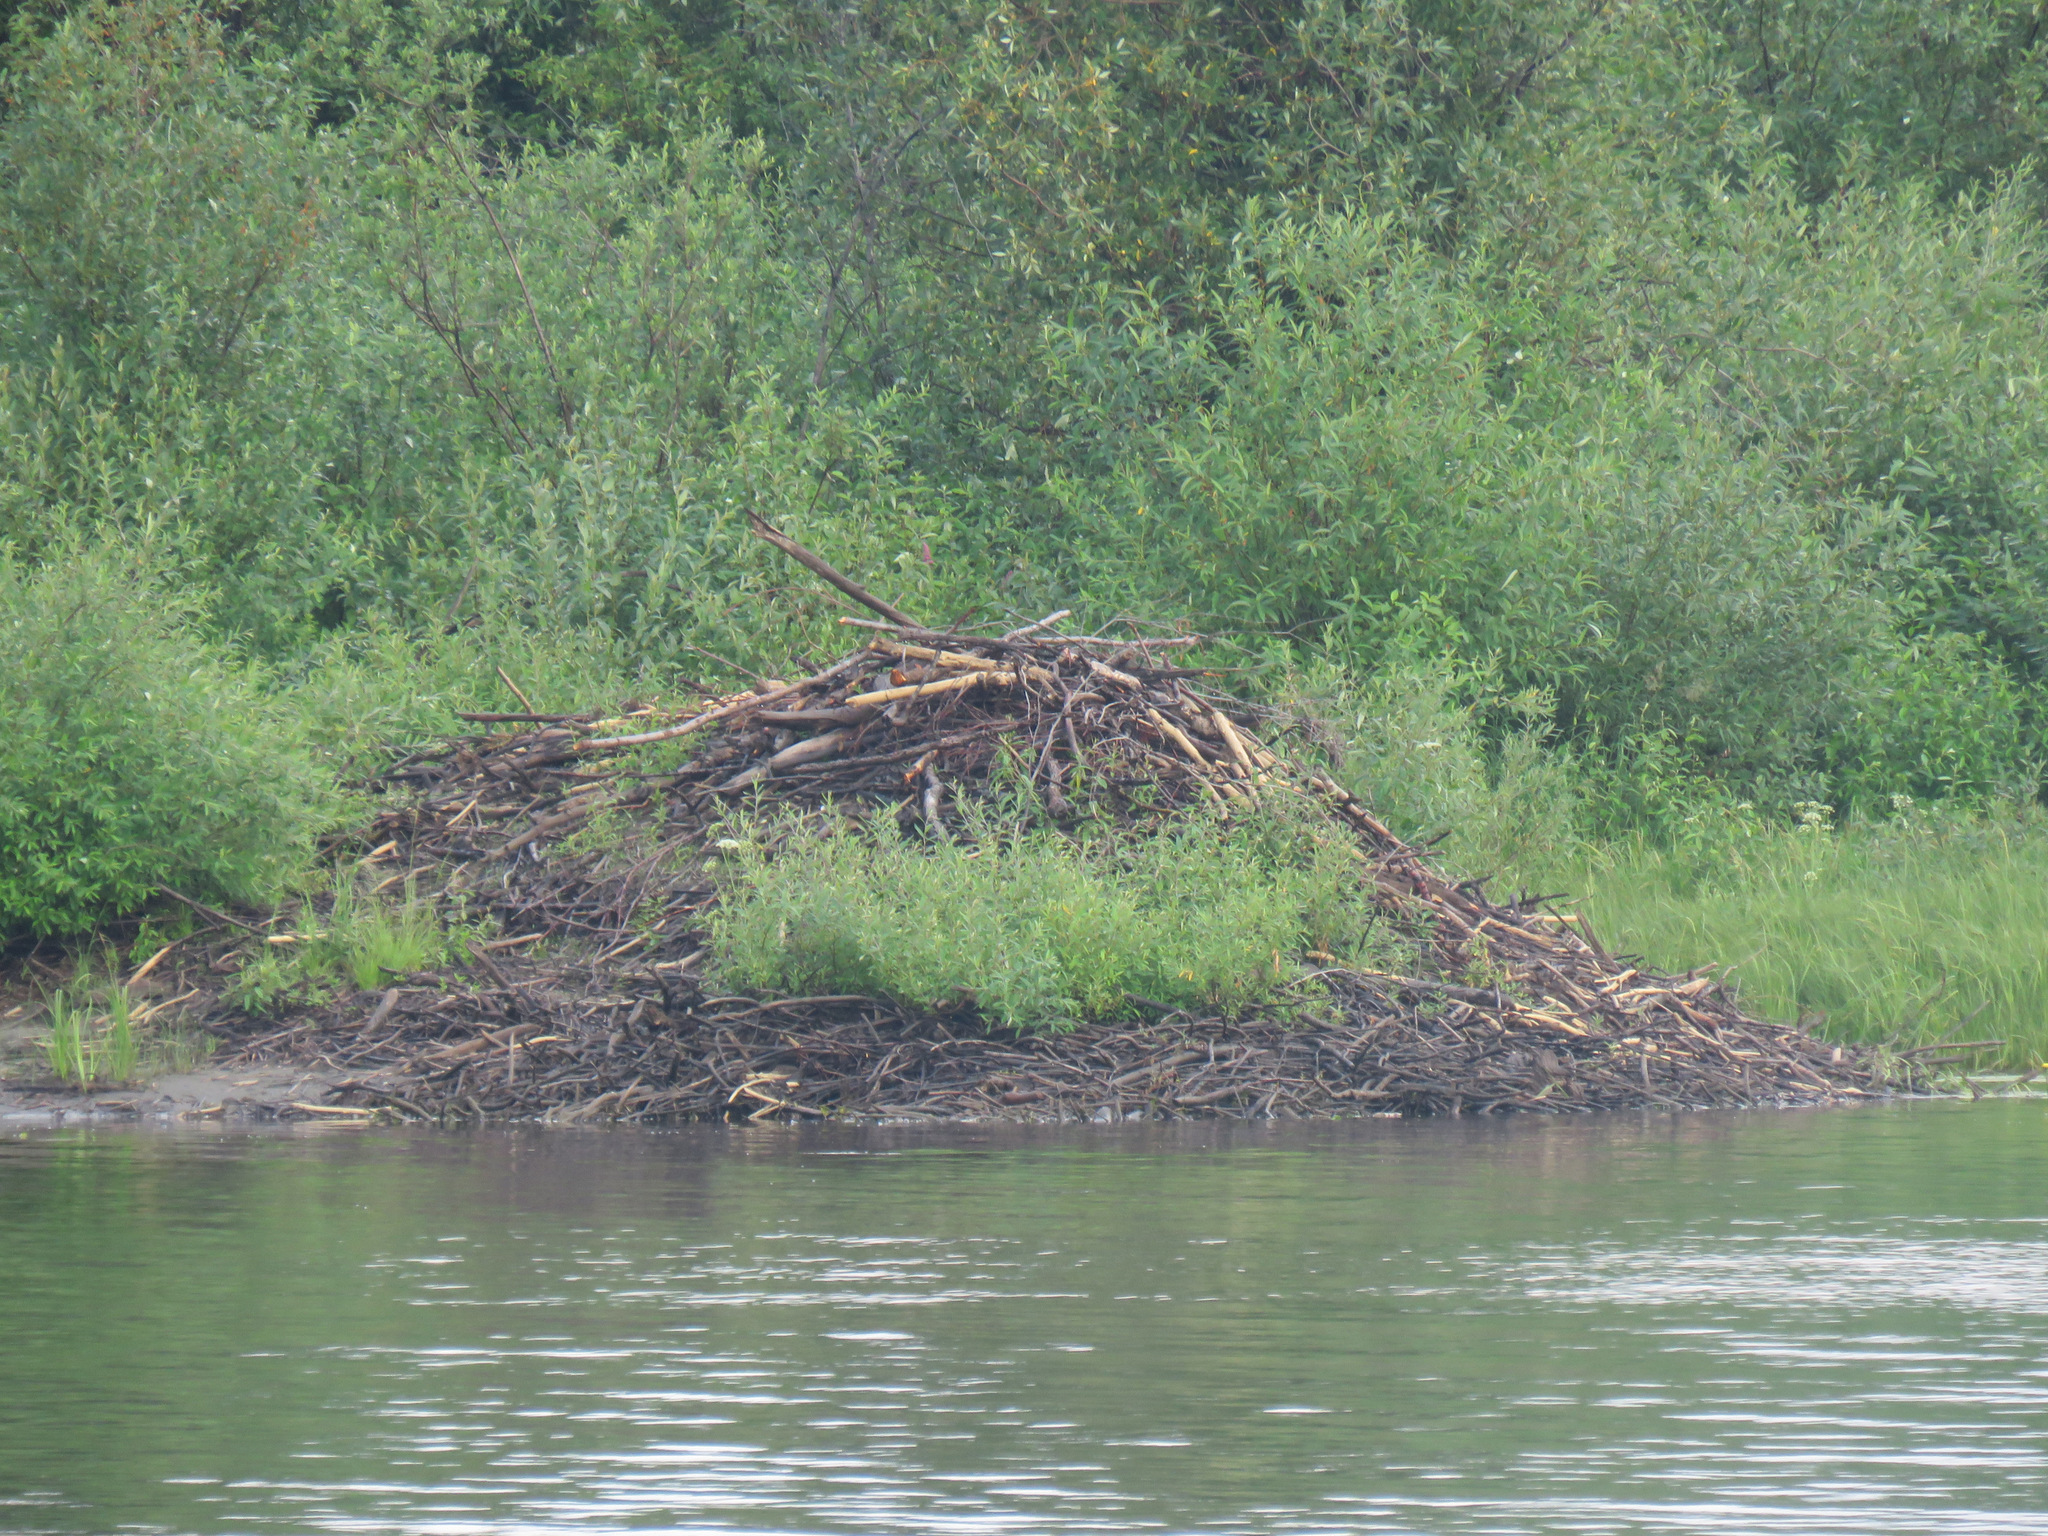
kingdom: Animalia
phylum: Chordata
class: Mammalia
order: Rodentia
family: Castoridae
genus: Castor
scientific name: Castor canadensis
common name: American beaver
